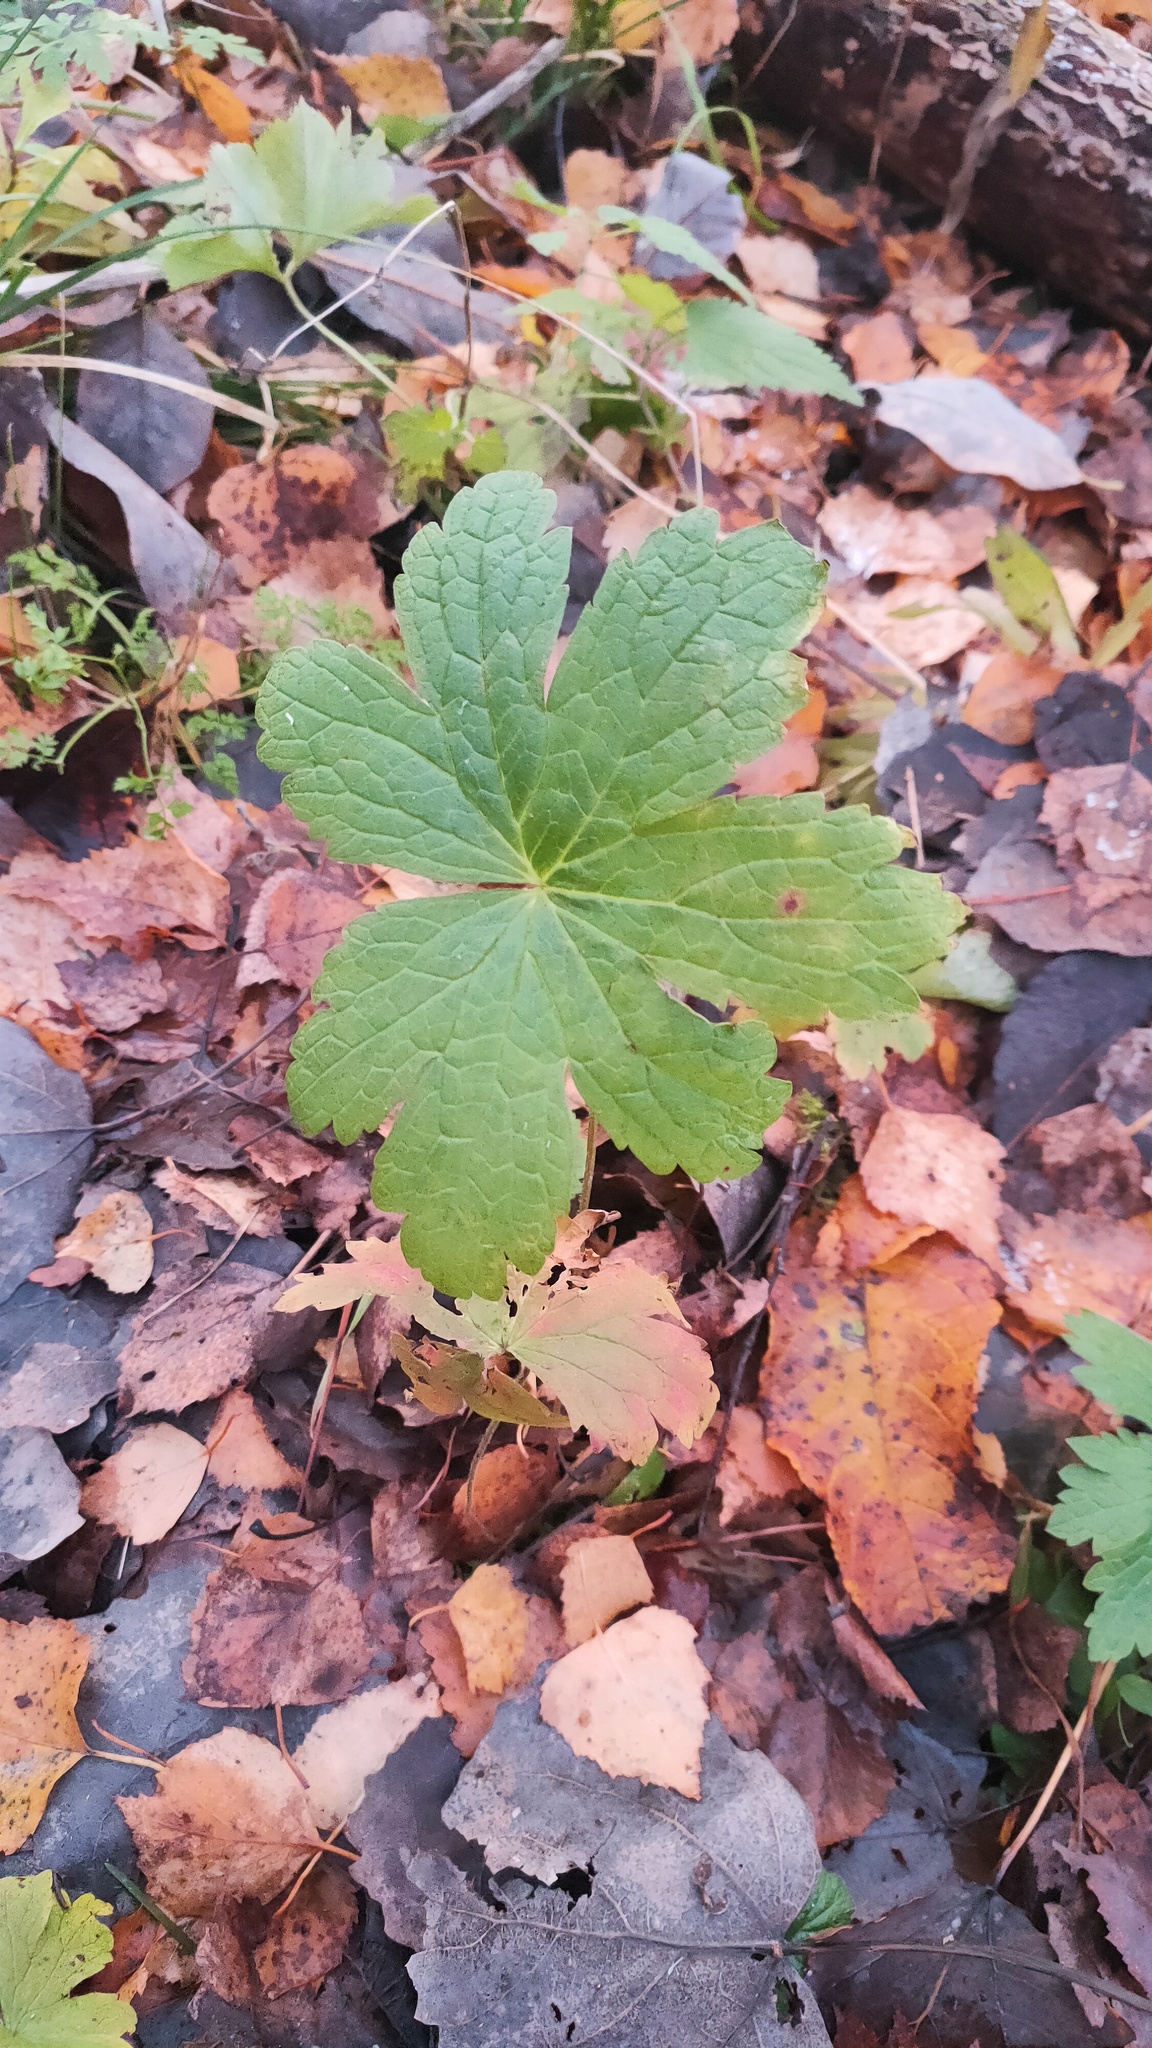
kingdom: Plantae
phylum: Tracheophyta
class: Magnoliopsida
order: Geraniales
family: Geraniaceae
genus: Geranium
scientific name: Geranium sylvaticum
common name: Wood crane's-bill
